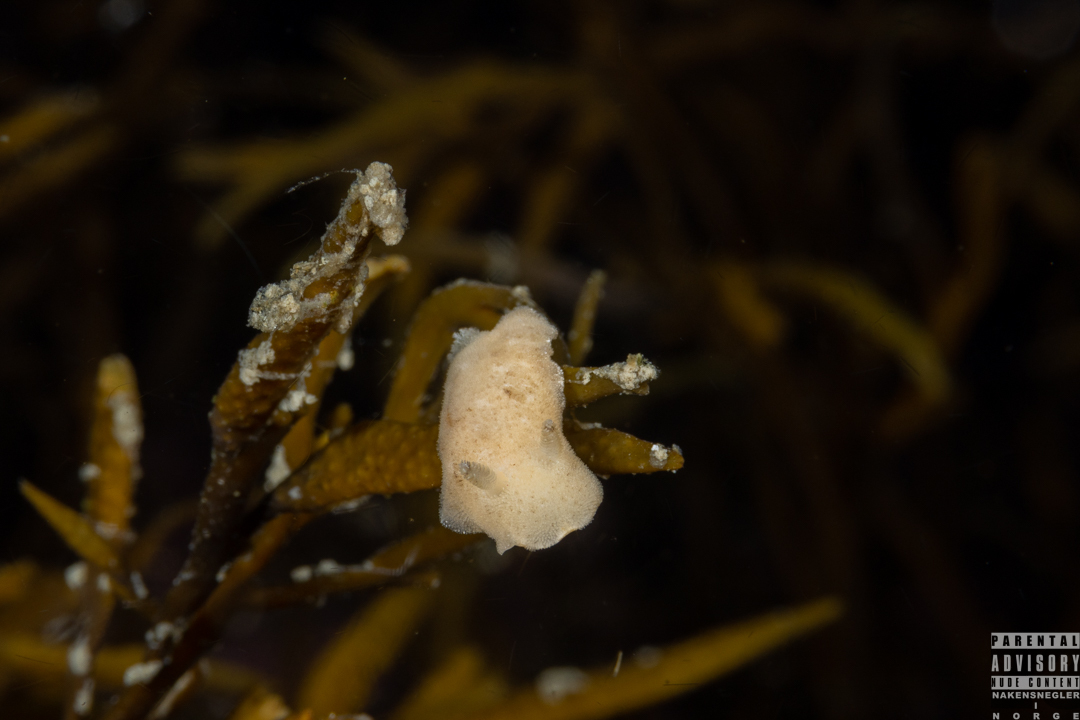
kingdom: Animalia
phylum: Mollusca
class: Gastropoda
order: Nudibranchia
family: Discodorididae
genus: Jorunna
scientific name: Jorunna tomentosa
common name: Grey sea slug
